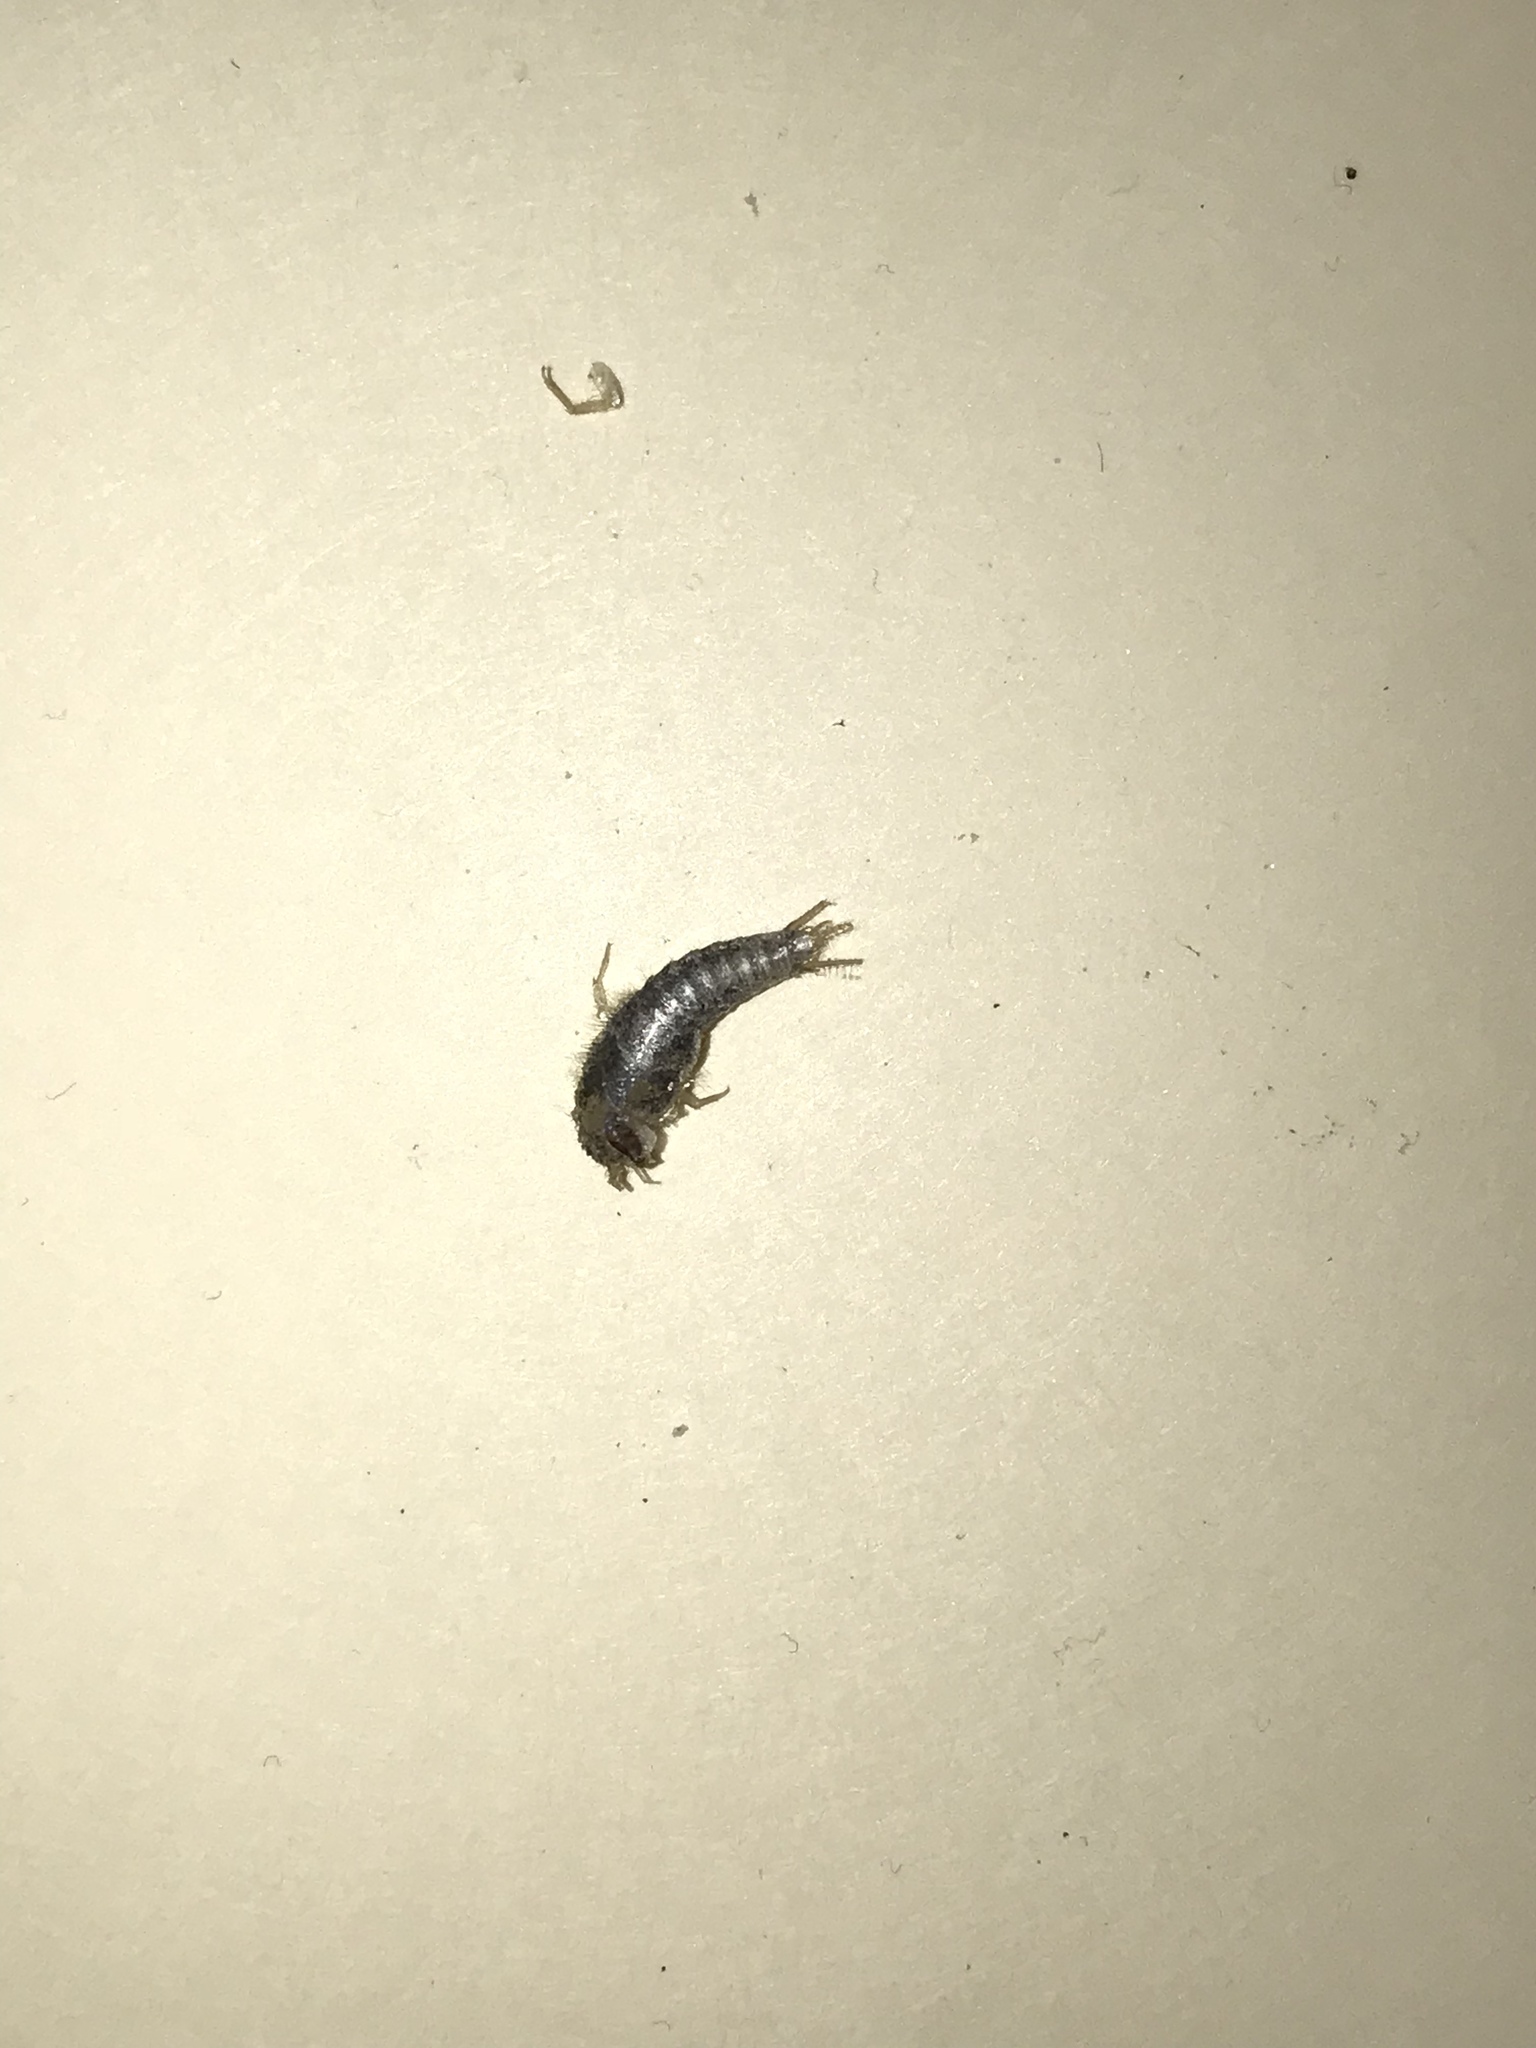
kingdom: Animalia
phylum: Arthropoda
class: Insecta
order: Zygentoma
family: Lepismatidae
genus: Lepisma
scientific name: Lepisma saccharinum
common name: Silverfish
